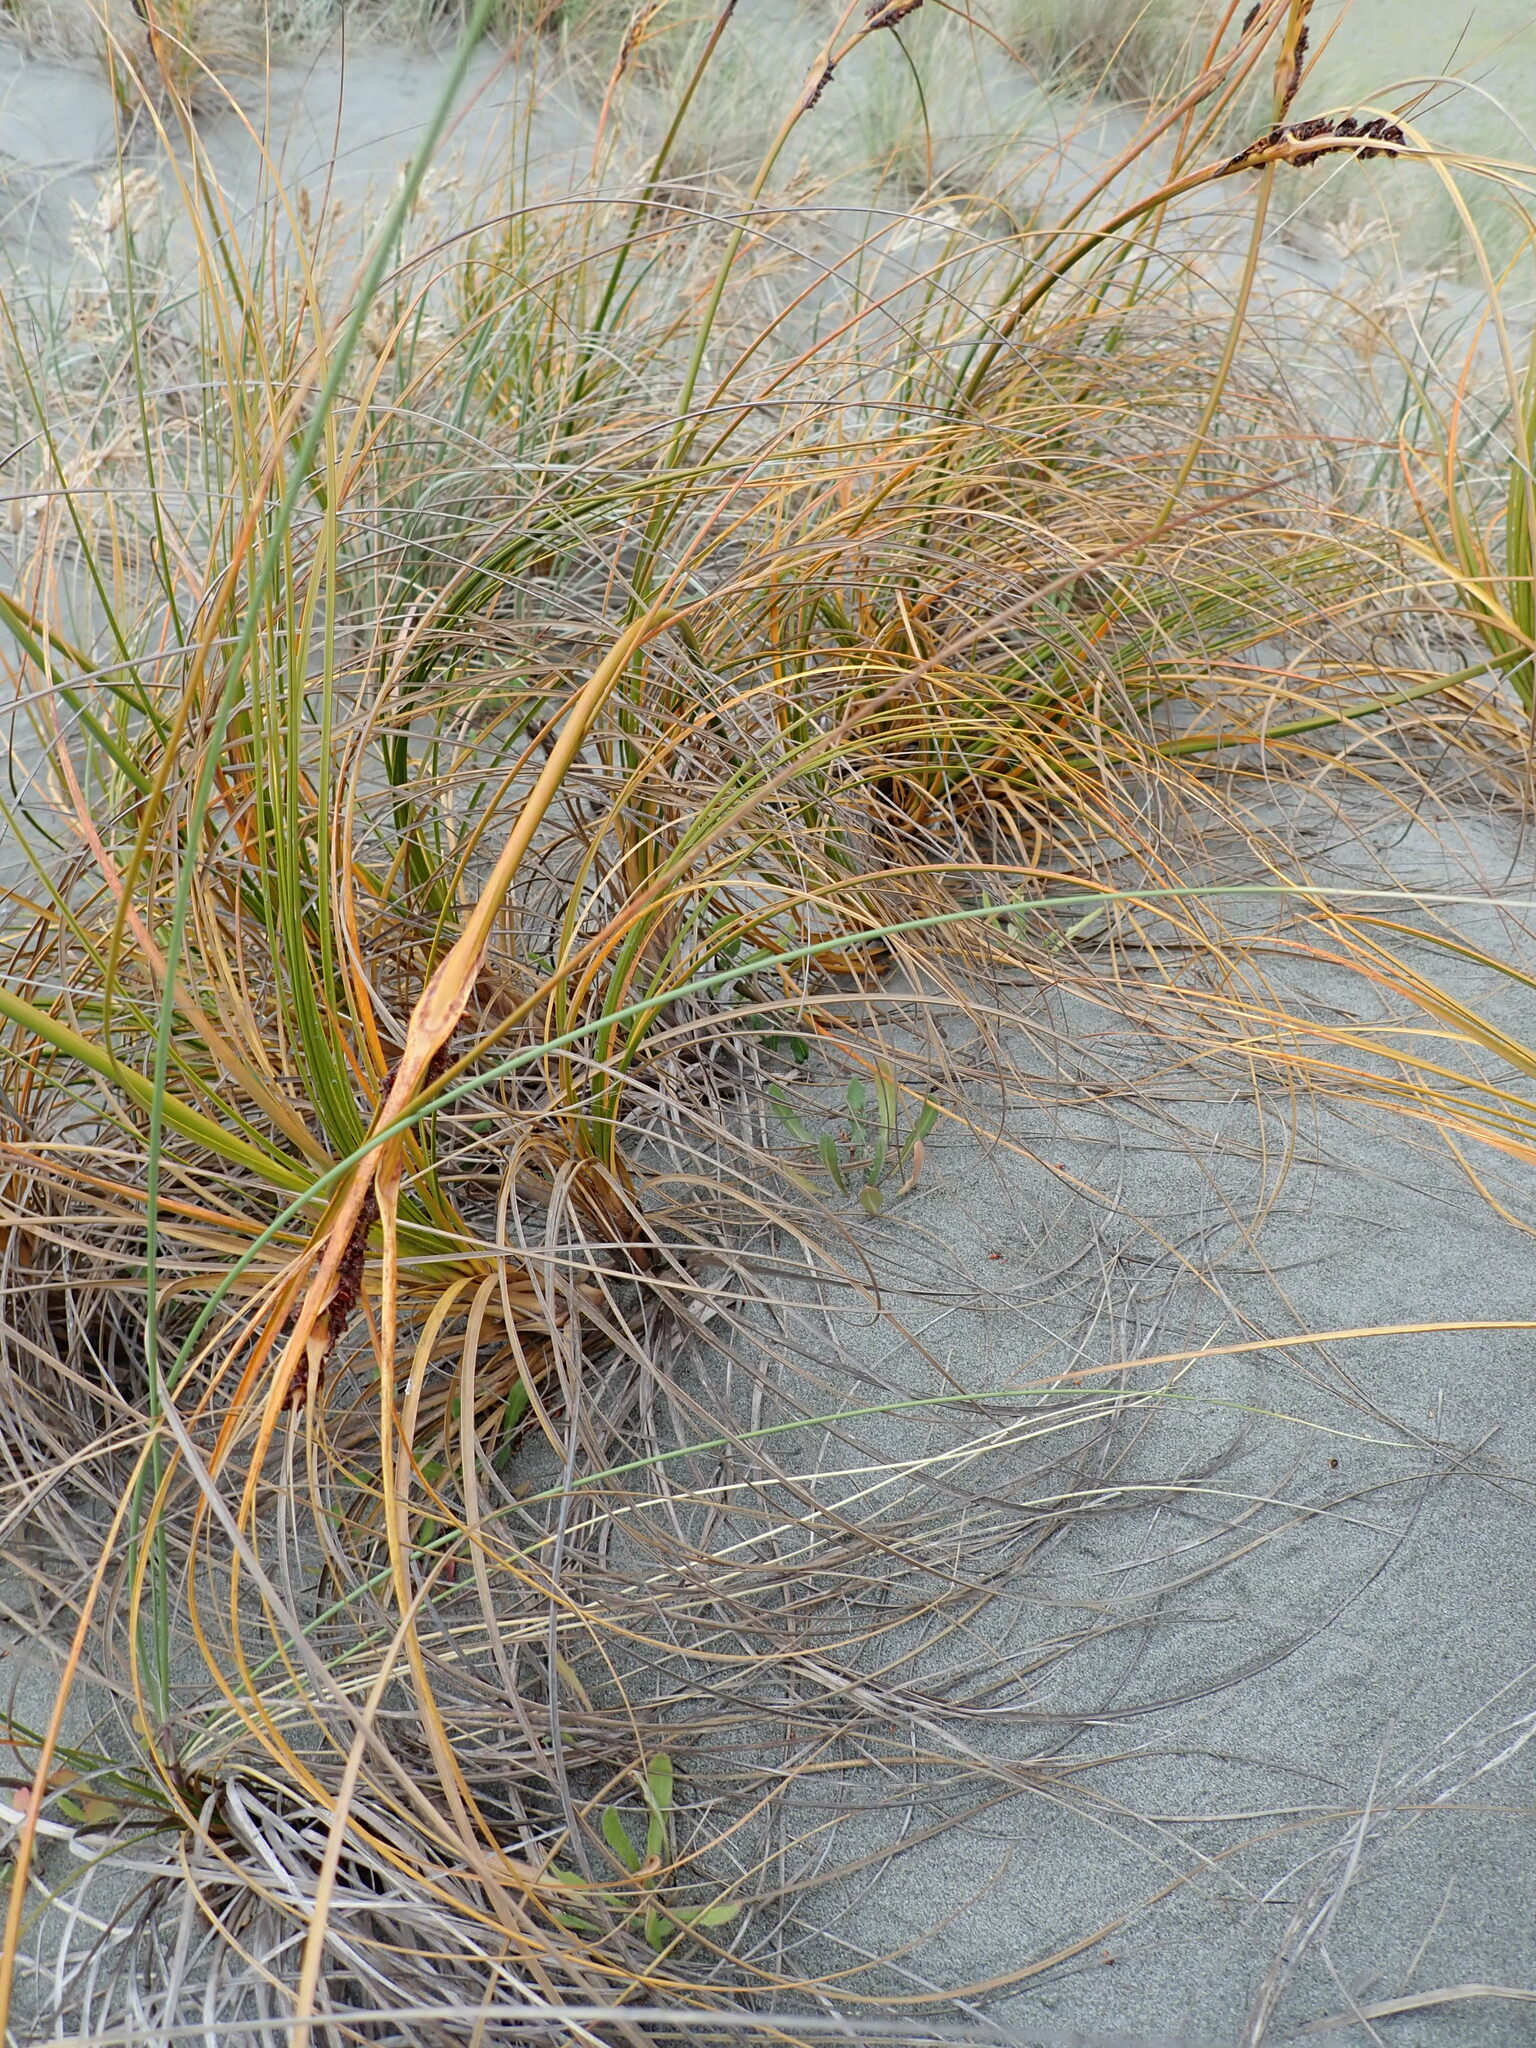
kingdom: Plantae
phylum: Tracheophyta
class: Liliopsida
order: Poales
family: Cyperaceae
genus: Ficinia
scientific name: Ficinia spiralis
